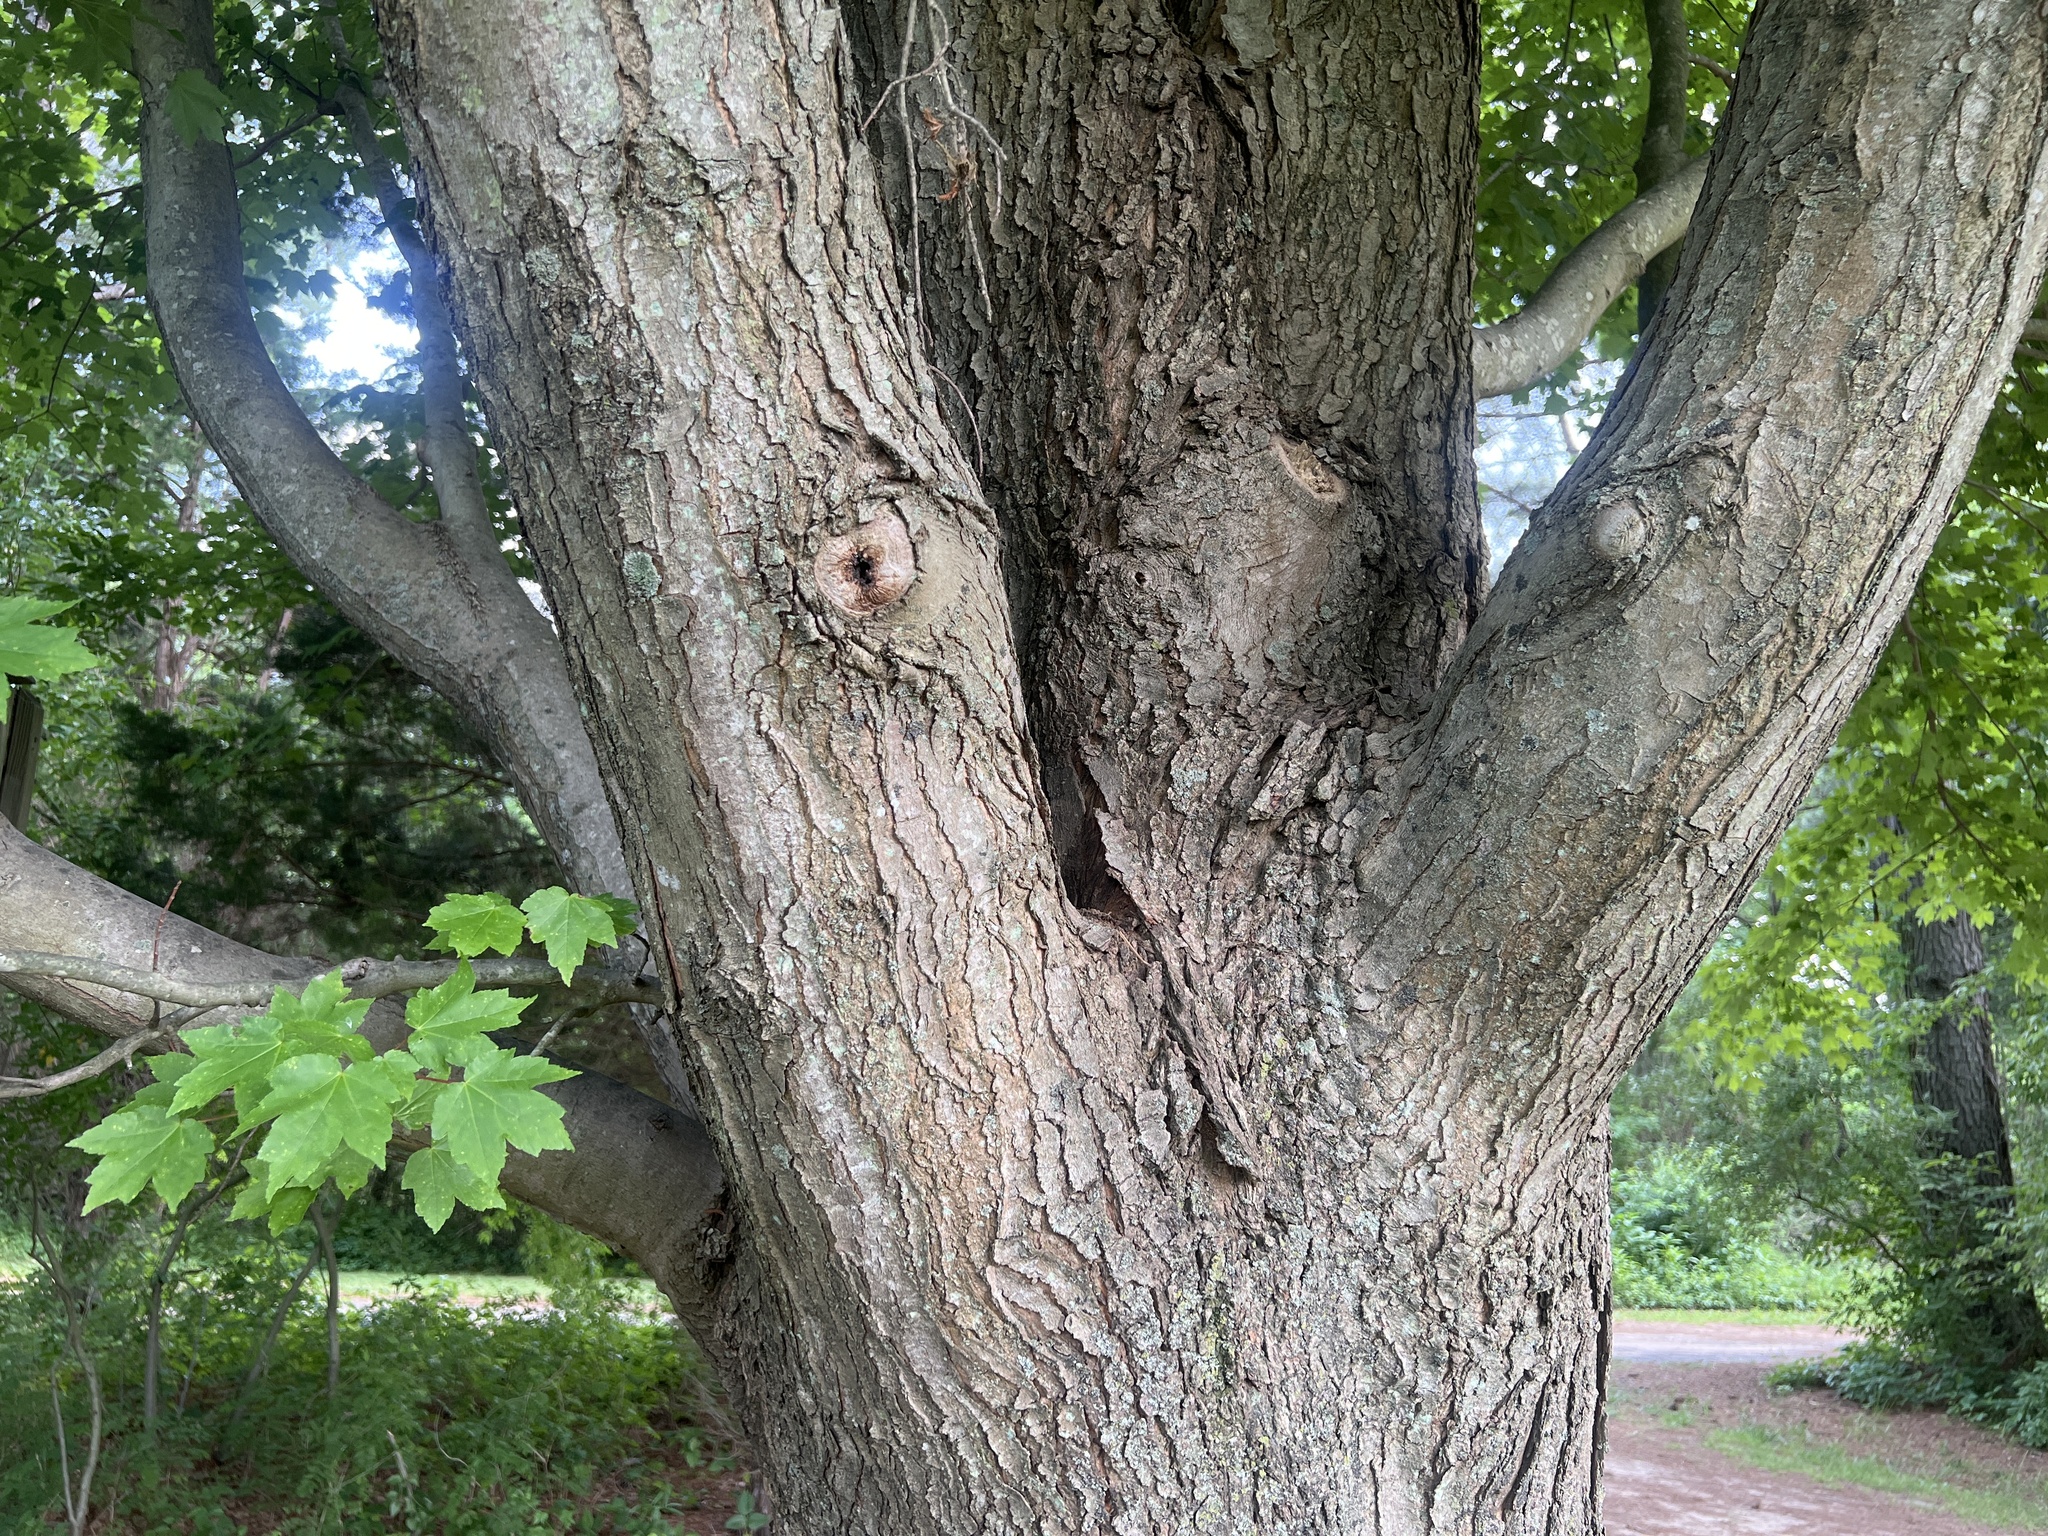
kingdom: Plantae
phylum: Tracheophyta
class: Magnoliopsida
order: Sapindales
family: Sapindaceae
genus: Acer
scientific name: Acer rubrum
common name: Red maple
